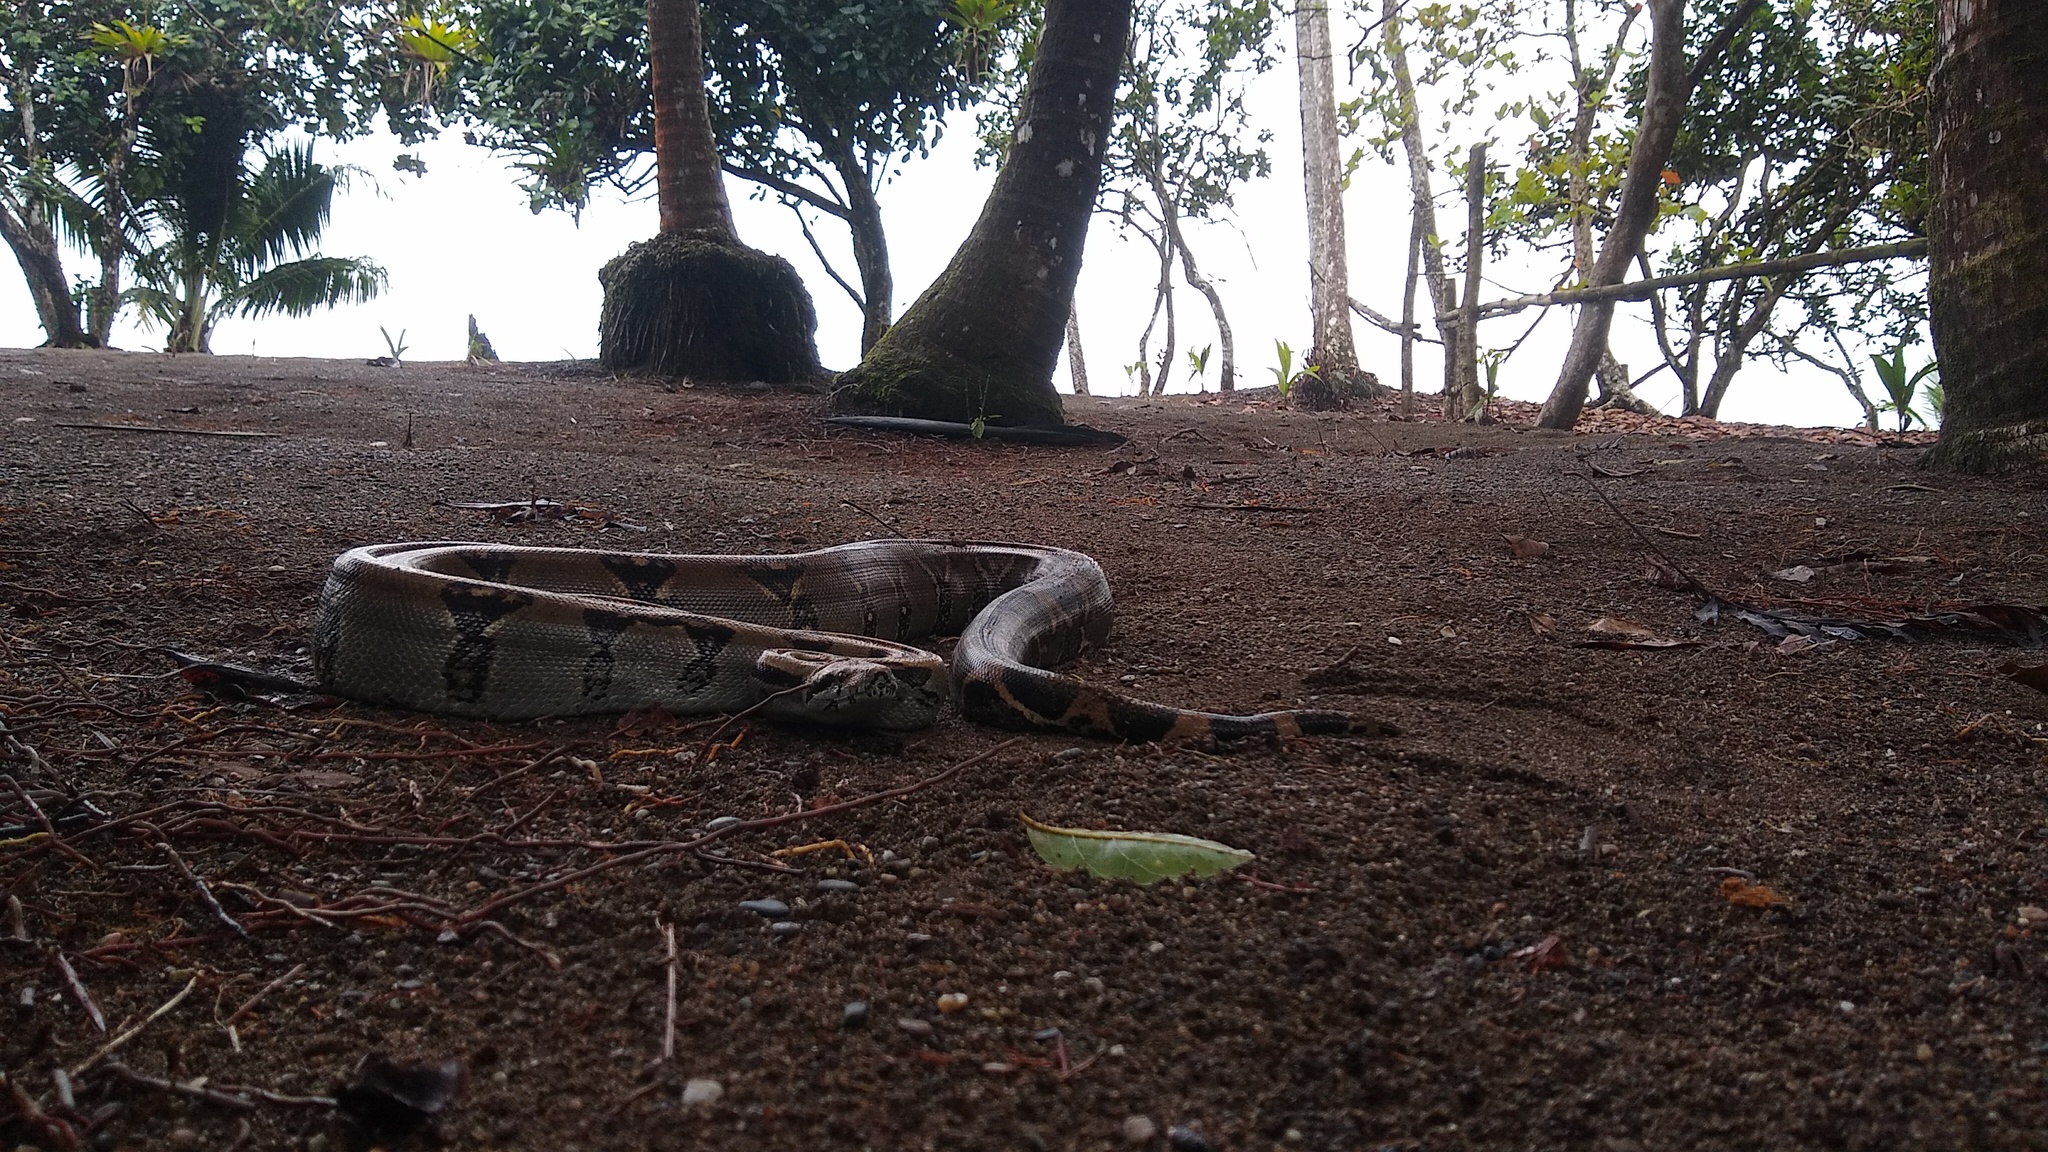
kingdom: Animalia
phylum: Chordata
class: Squamata
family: Boidae
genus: Boa
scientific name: Boa imperator
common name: Central american boa
